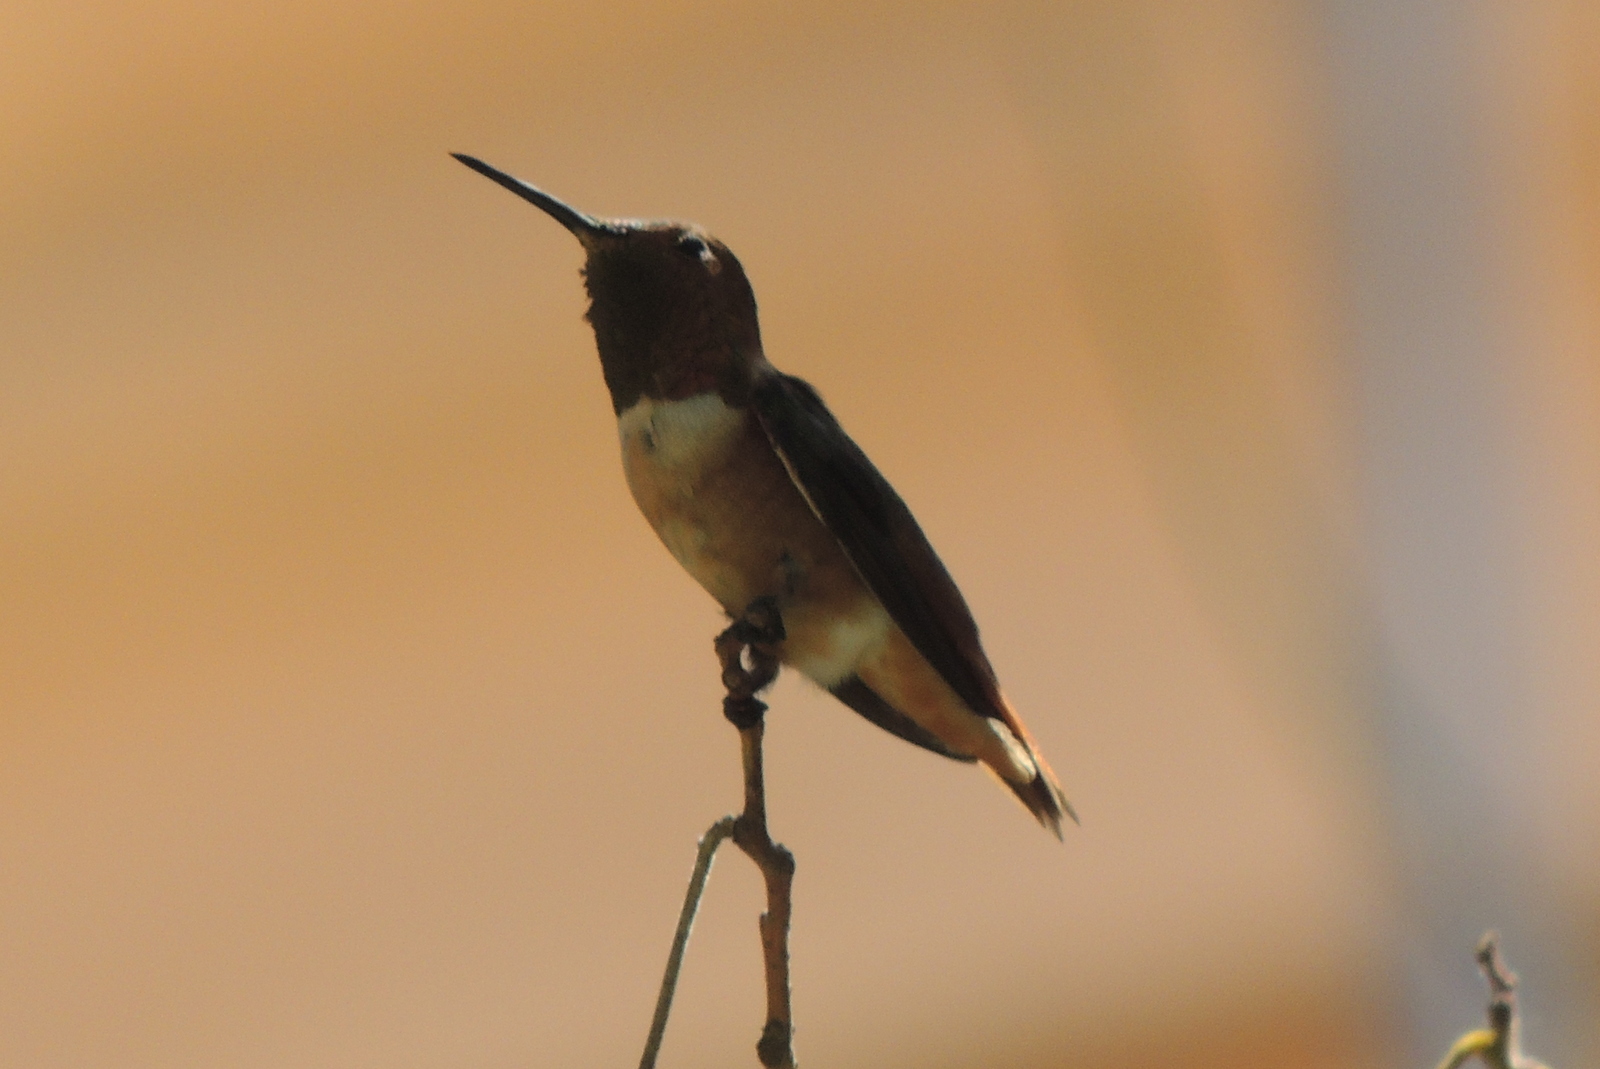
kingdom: Animalia
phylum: Chordata
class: Aves
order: Apodiformes
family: Trochilidae
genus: Selasphorus
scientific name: Selasphorus sasin
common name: Allen's hummingbird
